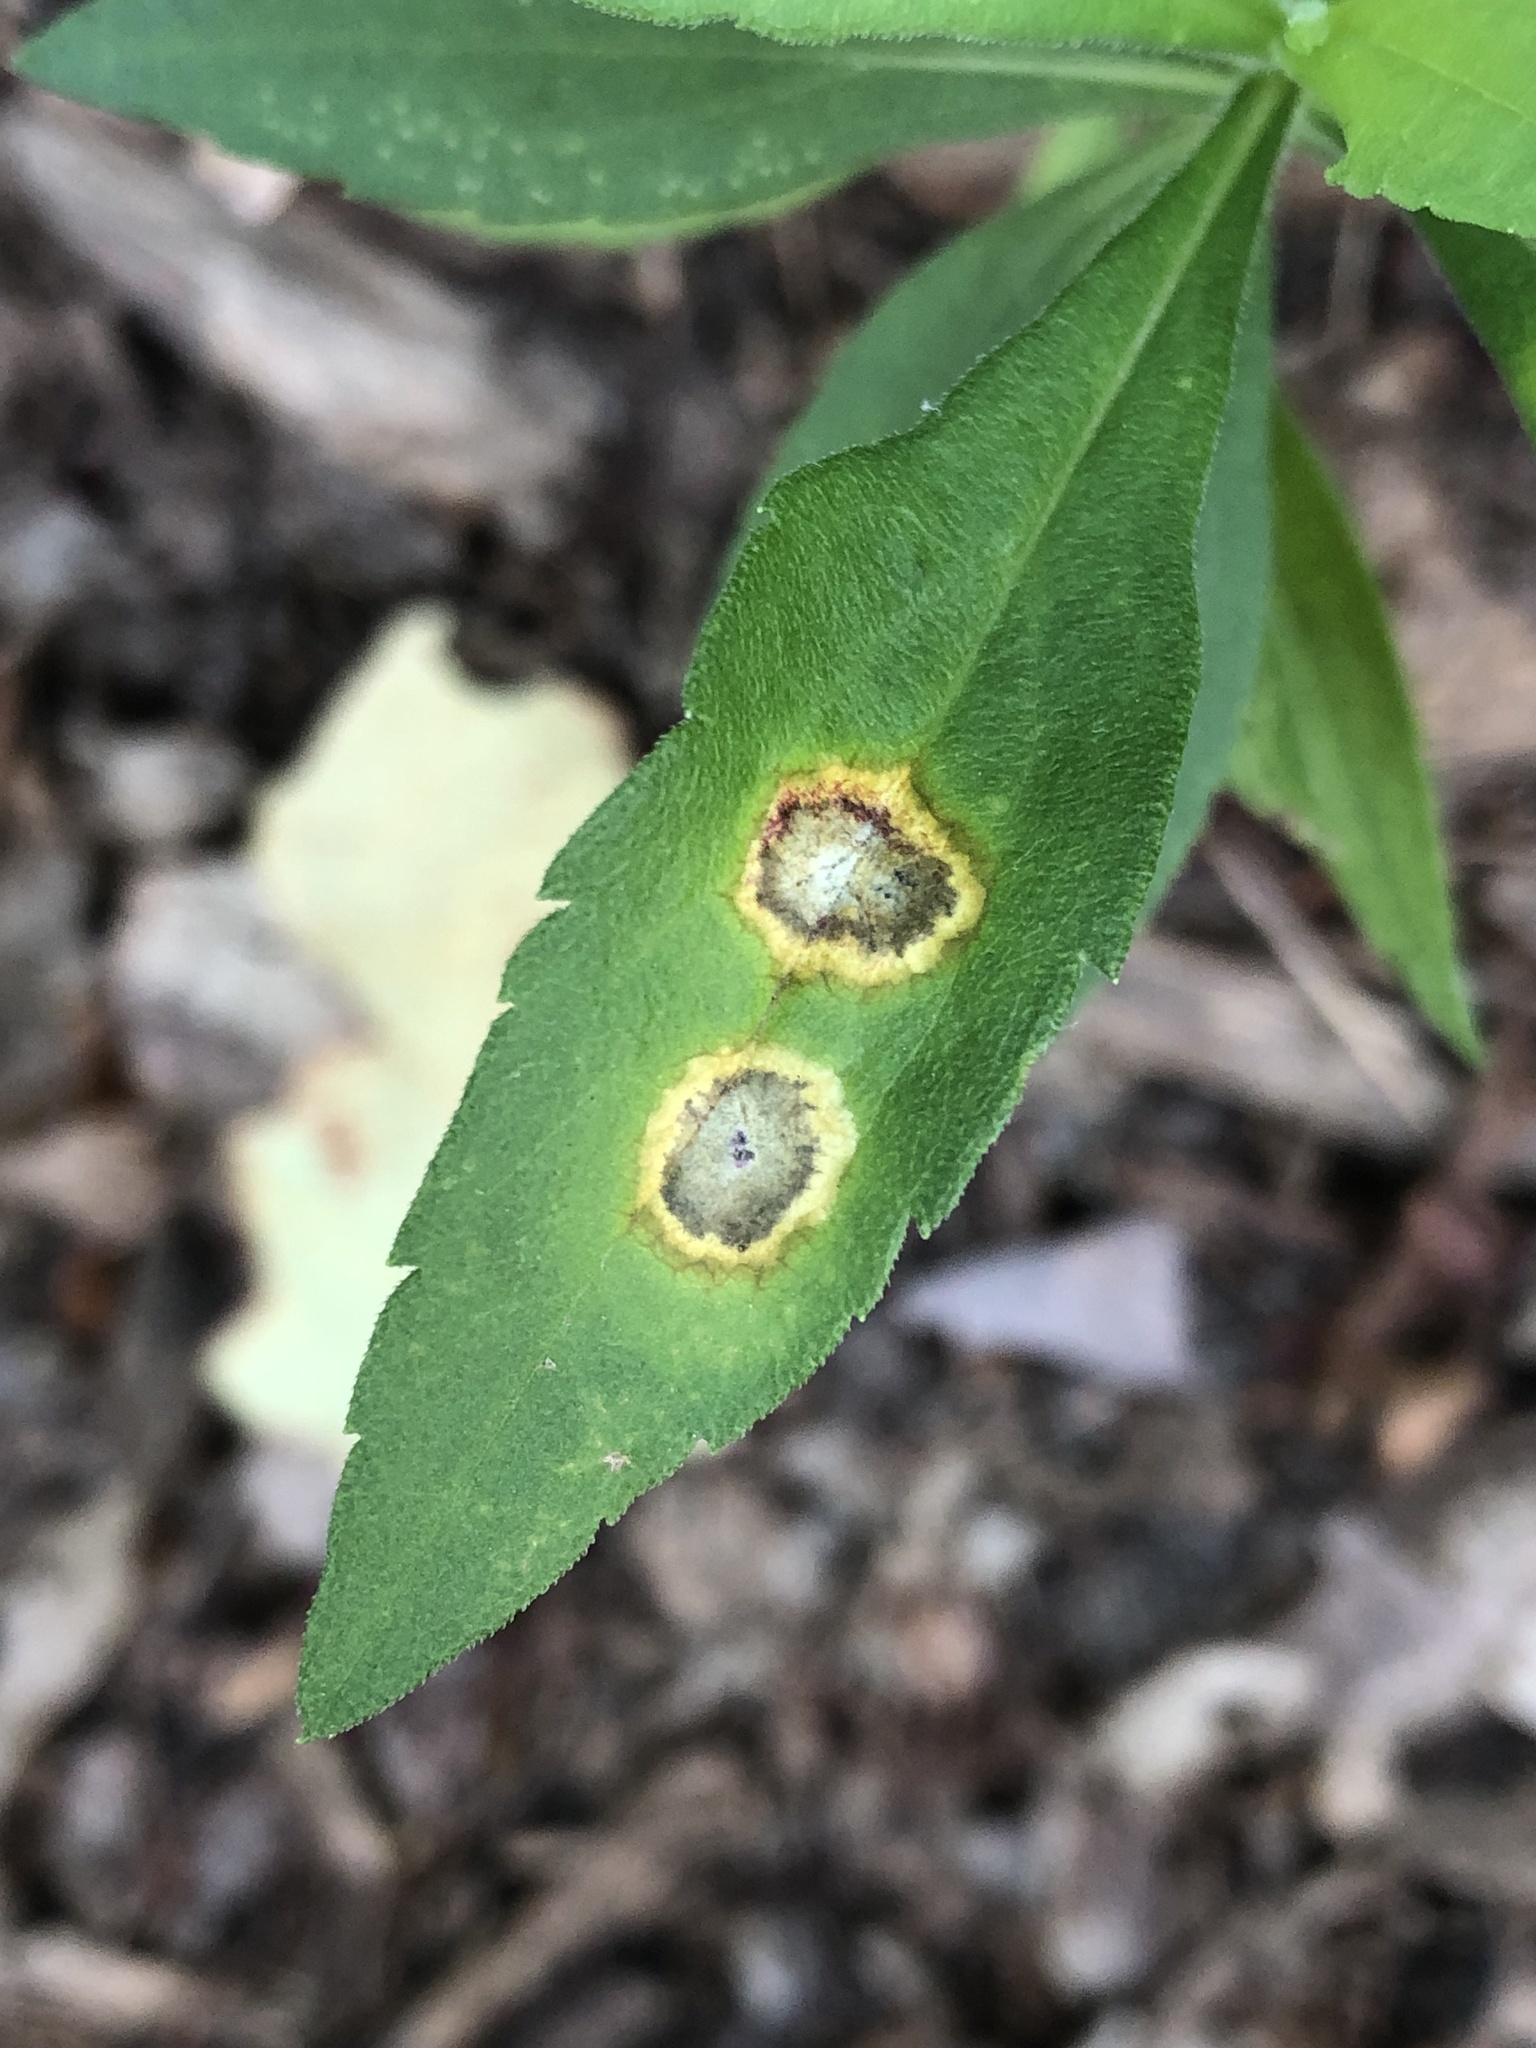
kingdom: Animalia
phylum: Arthropoda
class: Insecta
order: Diptera
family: Cecidomyiidae
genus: Asteromyia
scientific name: Asteromyia carbonifera
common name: Carbonifera goldenrod gall midge
